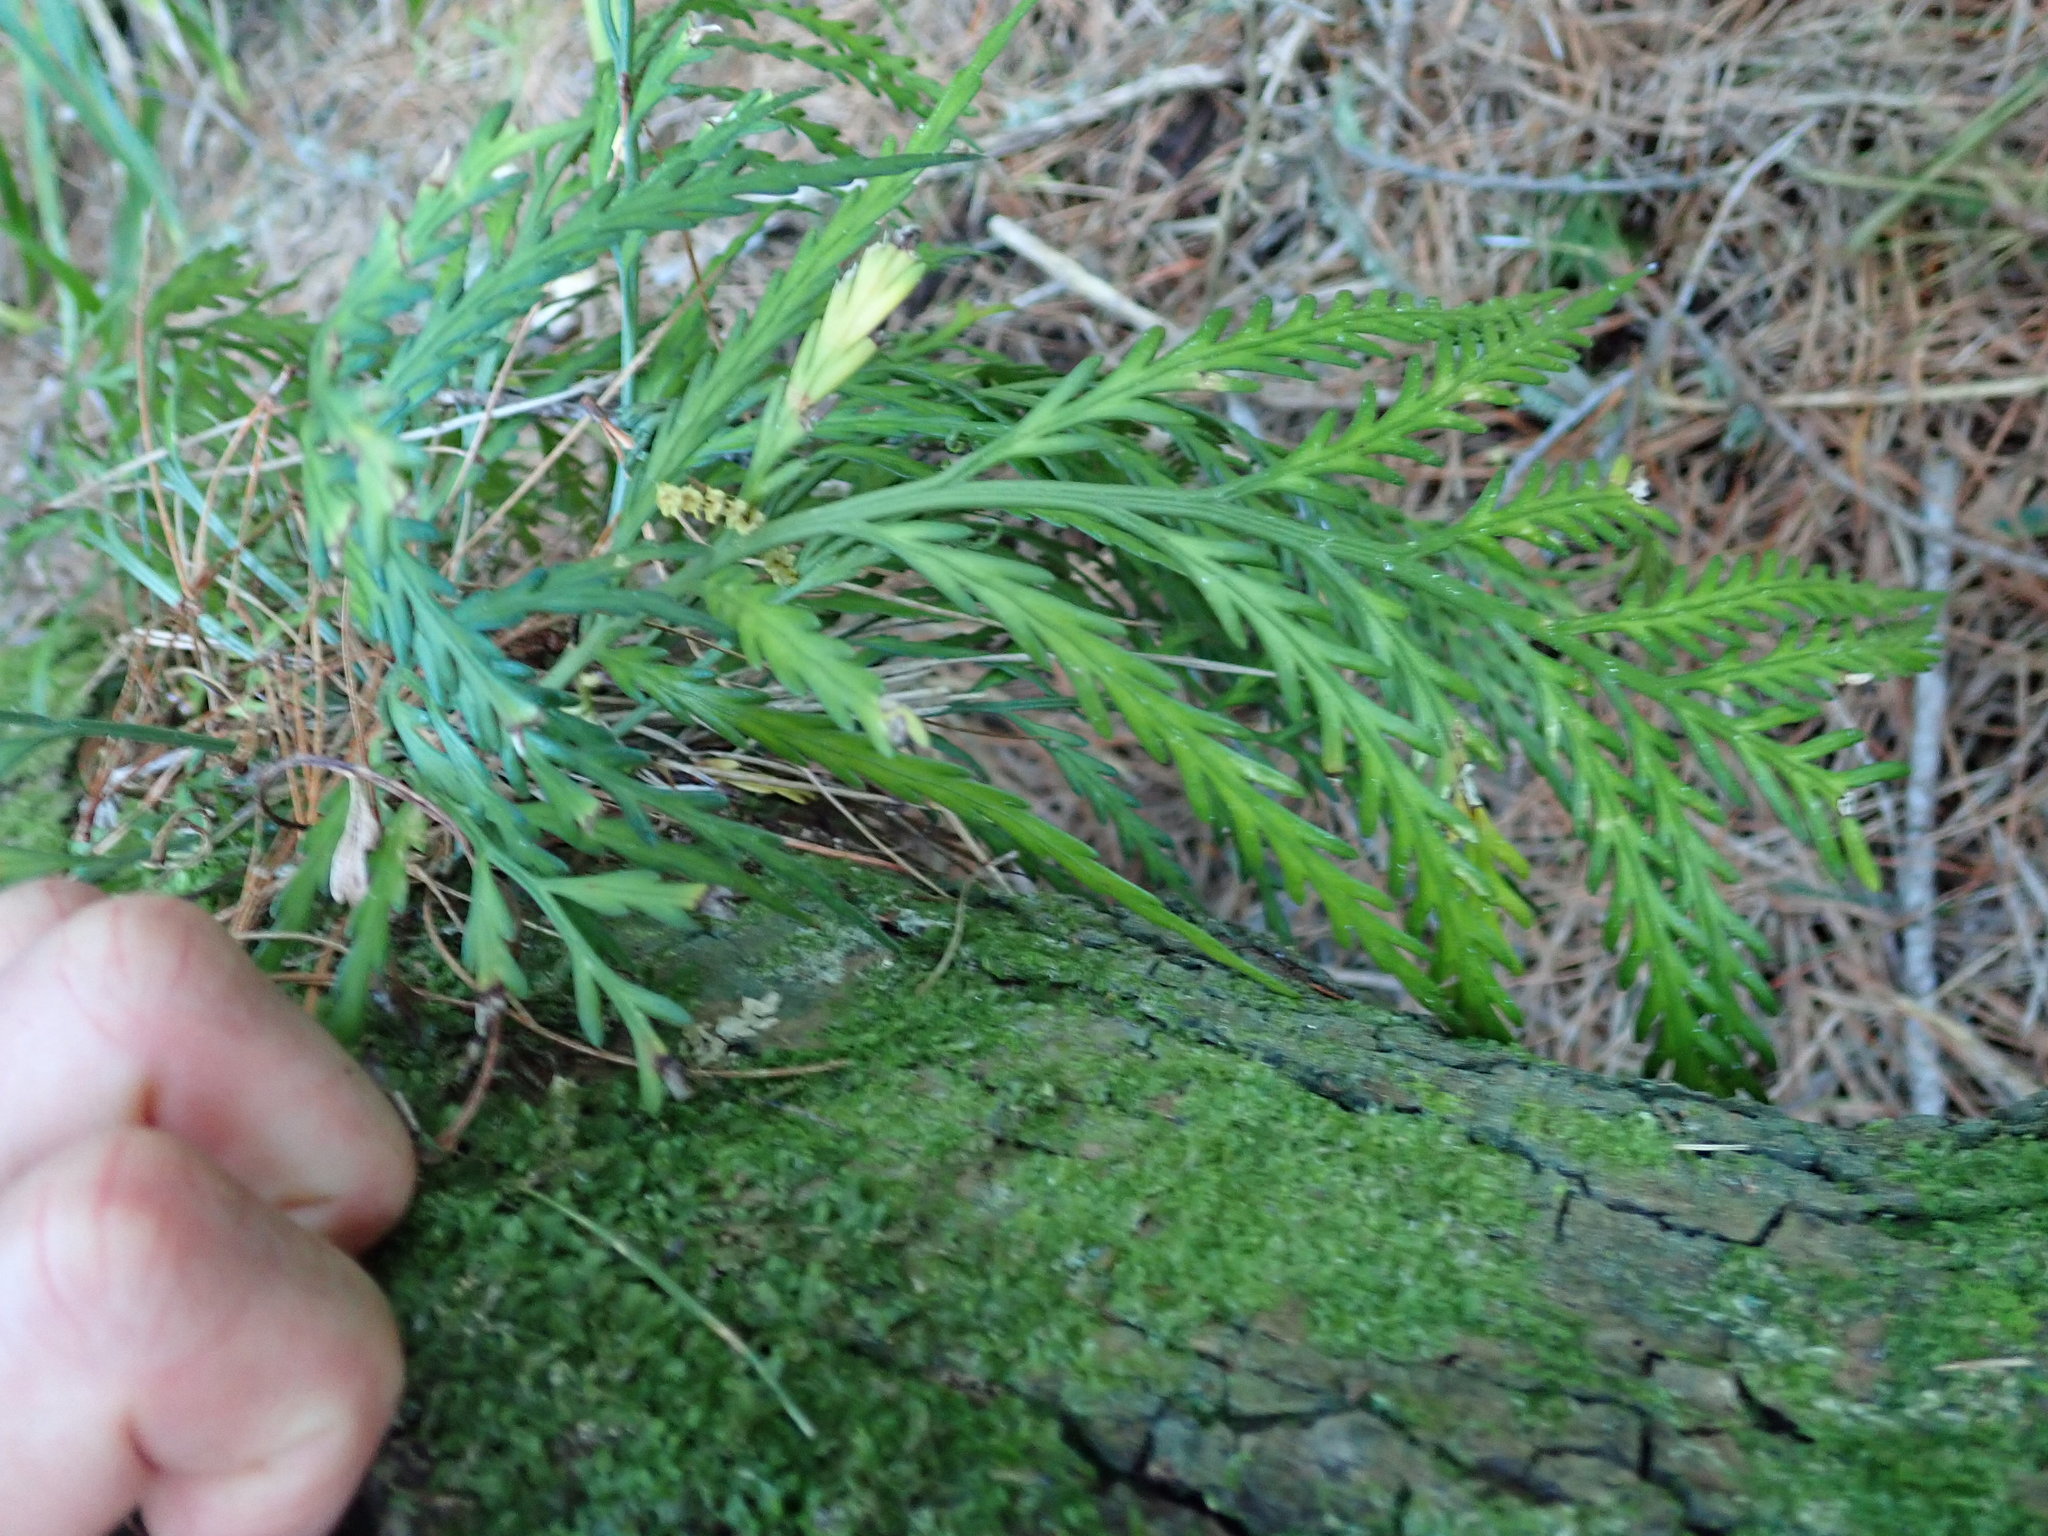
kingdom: Plantae
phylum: Tracheophyta
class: Polypodiopsida
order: Polypodiales
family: Aspleniaceae
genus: Asplenium
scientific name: Asplenium flaccidum
